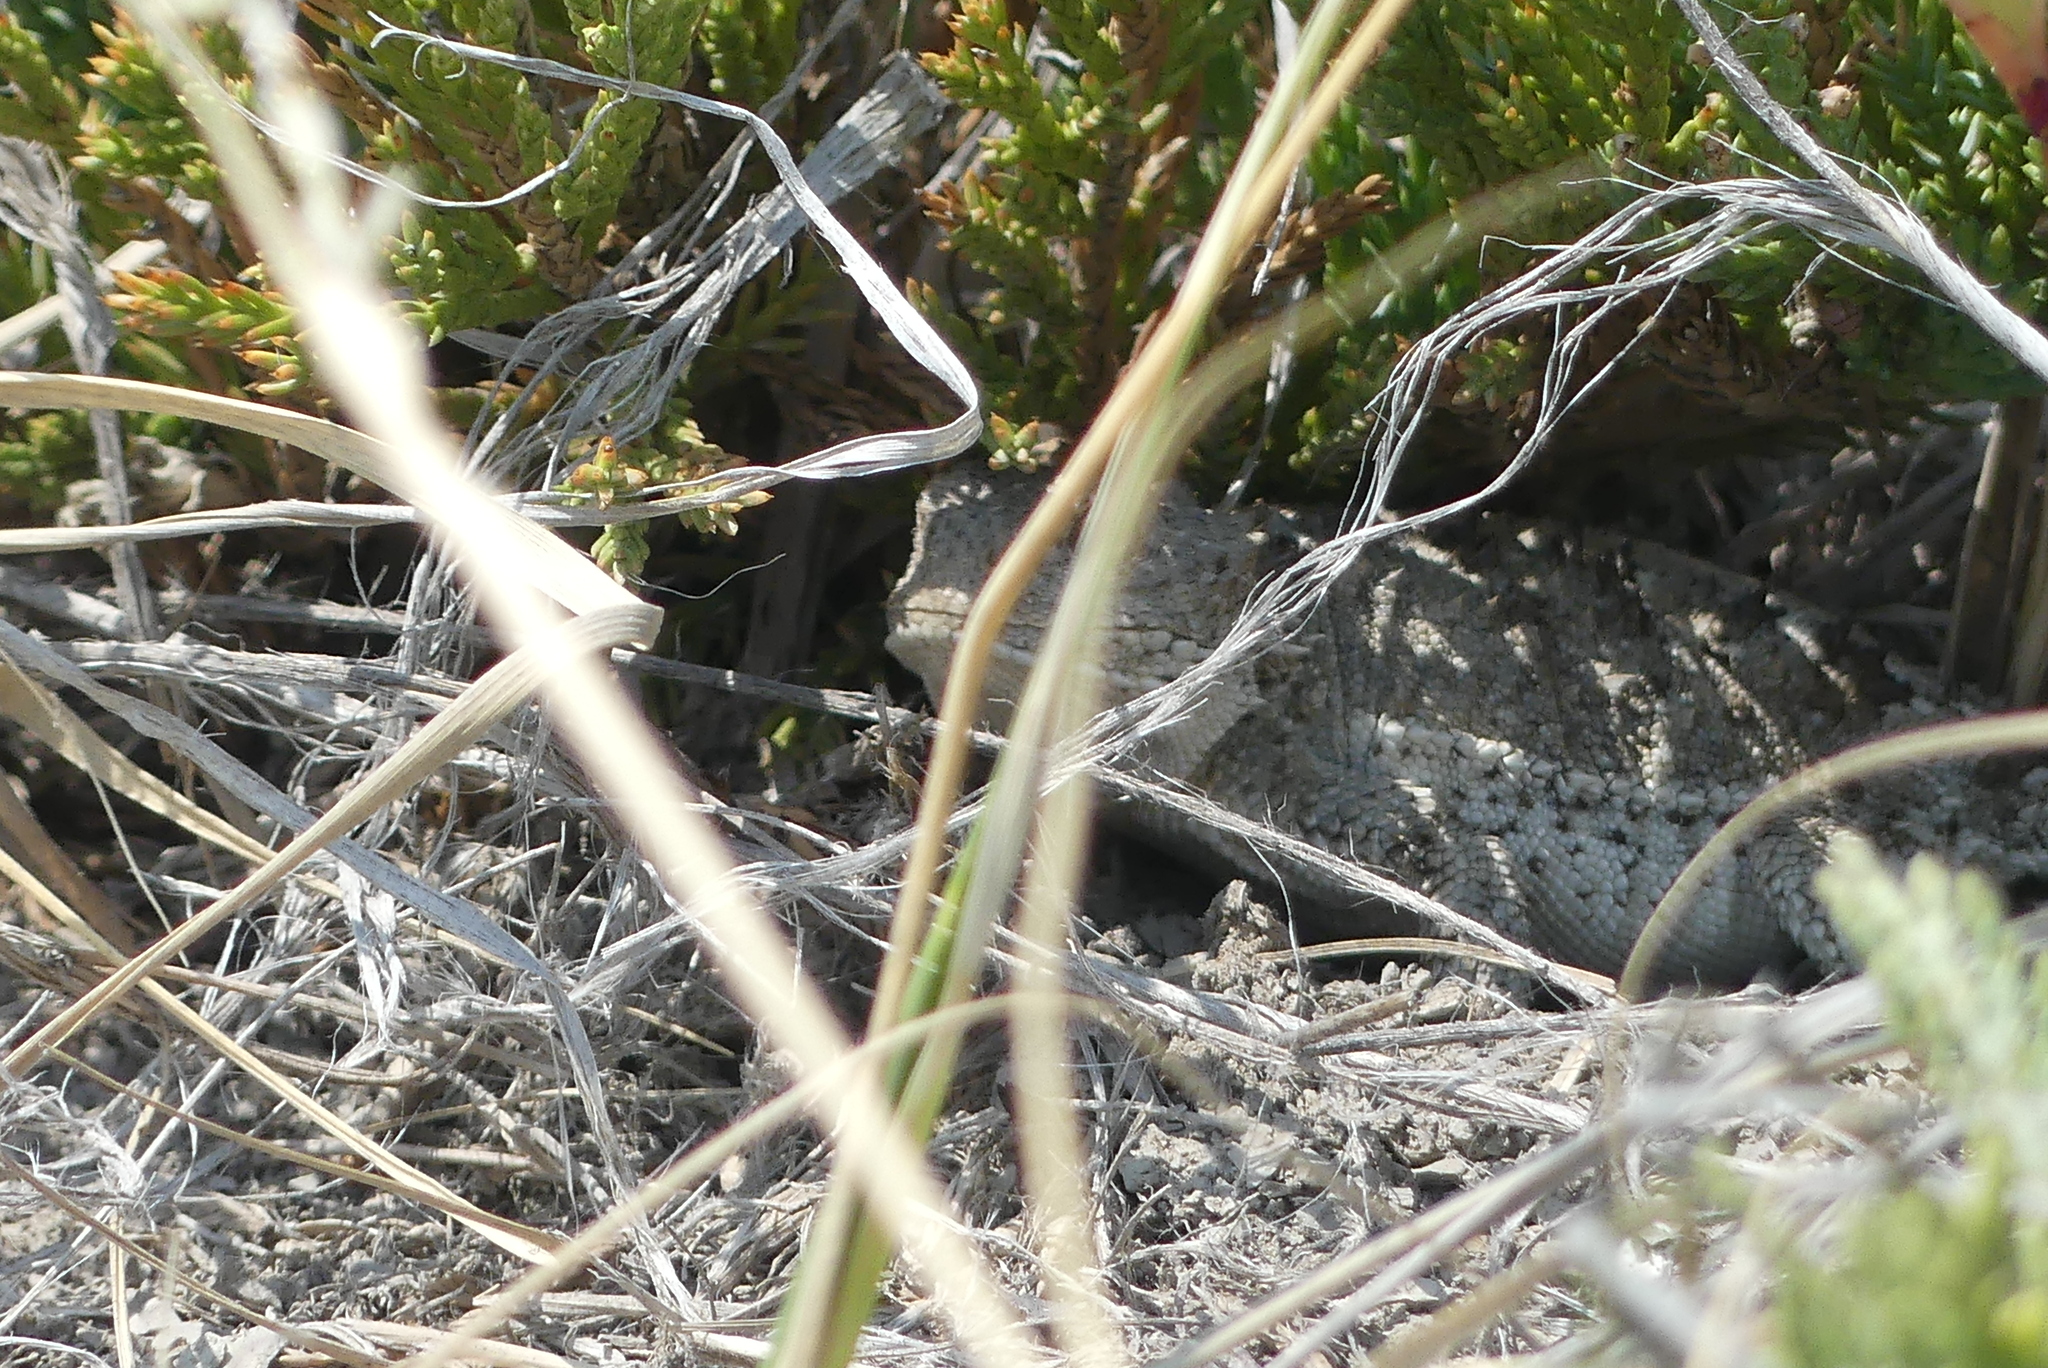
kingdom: Animalia
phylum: Chordata
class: Squamata
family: Phrynosomatidae
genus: Phrynosoma
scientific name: Phrynosoma hernandesi
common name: Greater short-horned lizard
